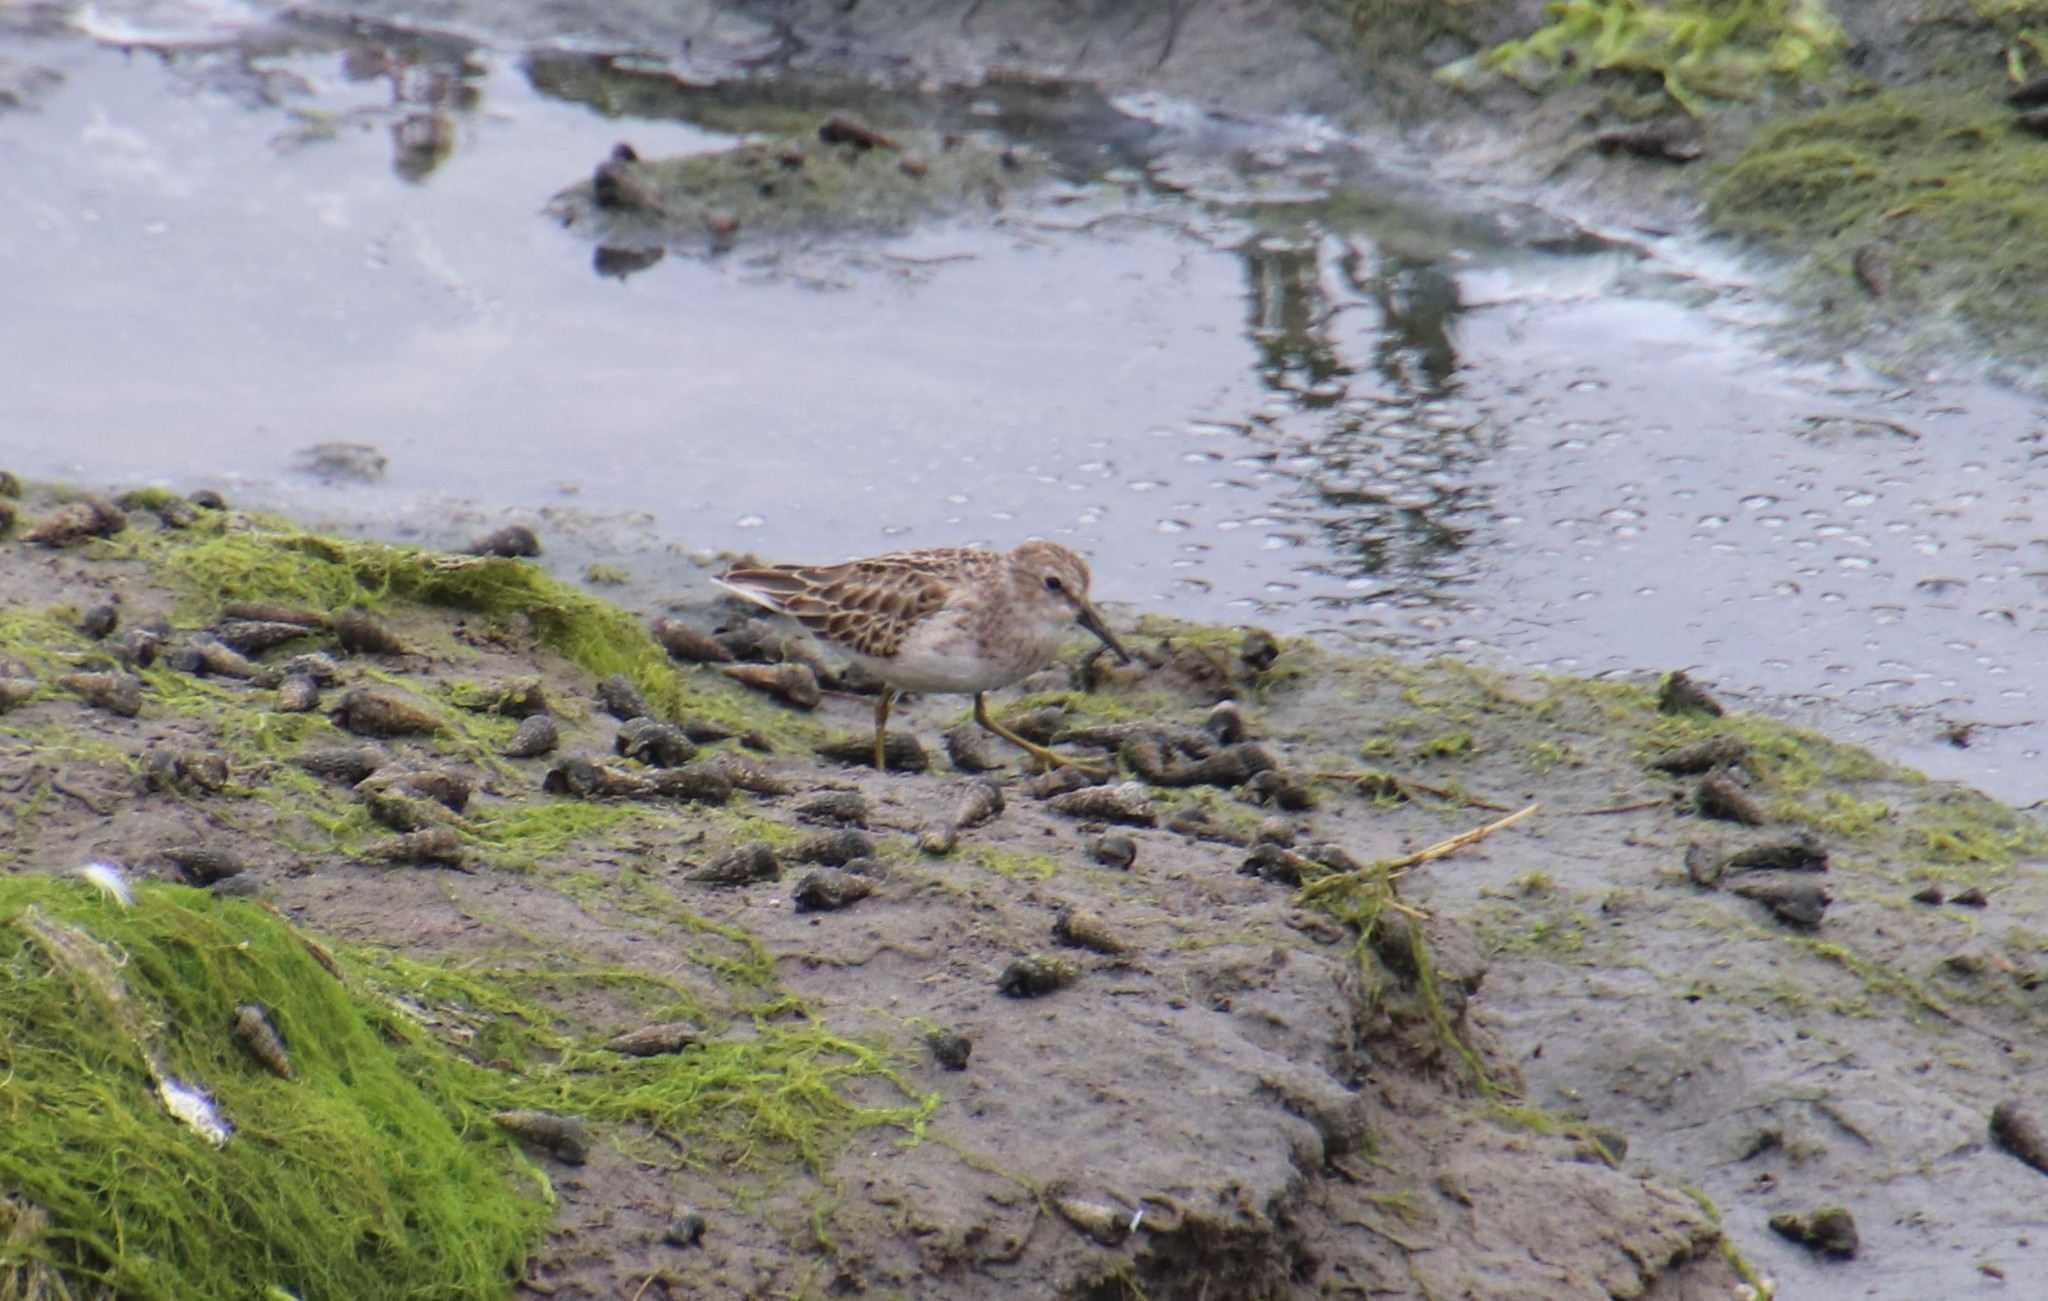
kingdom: Animalia
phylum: Chordata
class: Aves
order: Charadriiformes
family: Scolopacidae
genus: Calidris
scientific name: Calidris minutilla
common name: Least sandpiper
